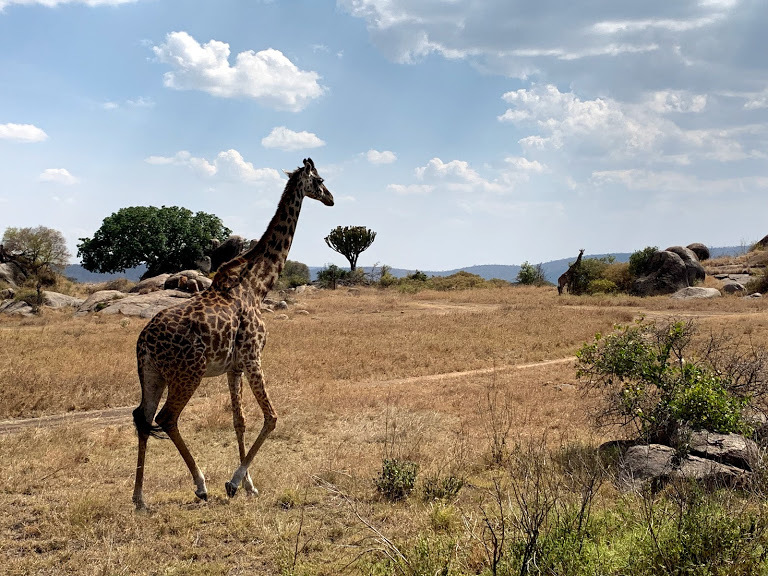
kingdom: Animalia
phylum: Chordata
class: Mammalia
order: Artiodactyla
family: Giraffidae
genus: Giraffa
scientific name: Giraffa tippelskirchi
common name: Masai giraffe
